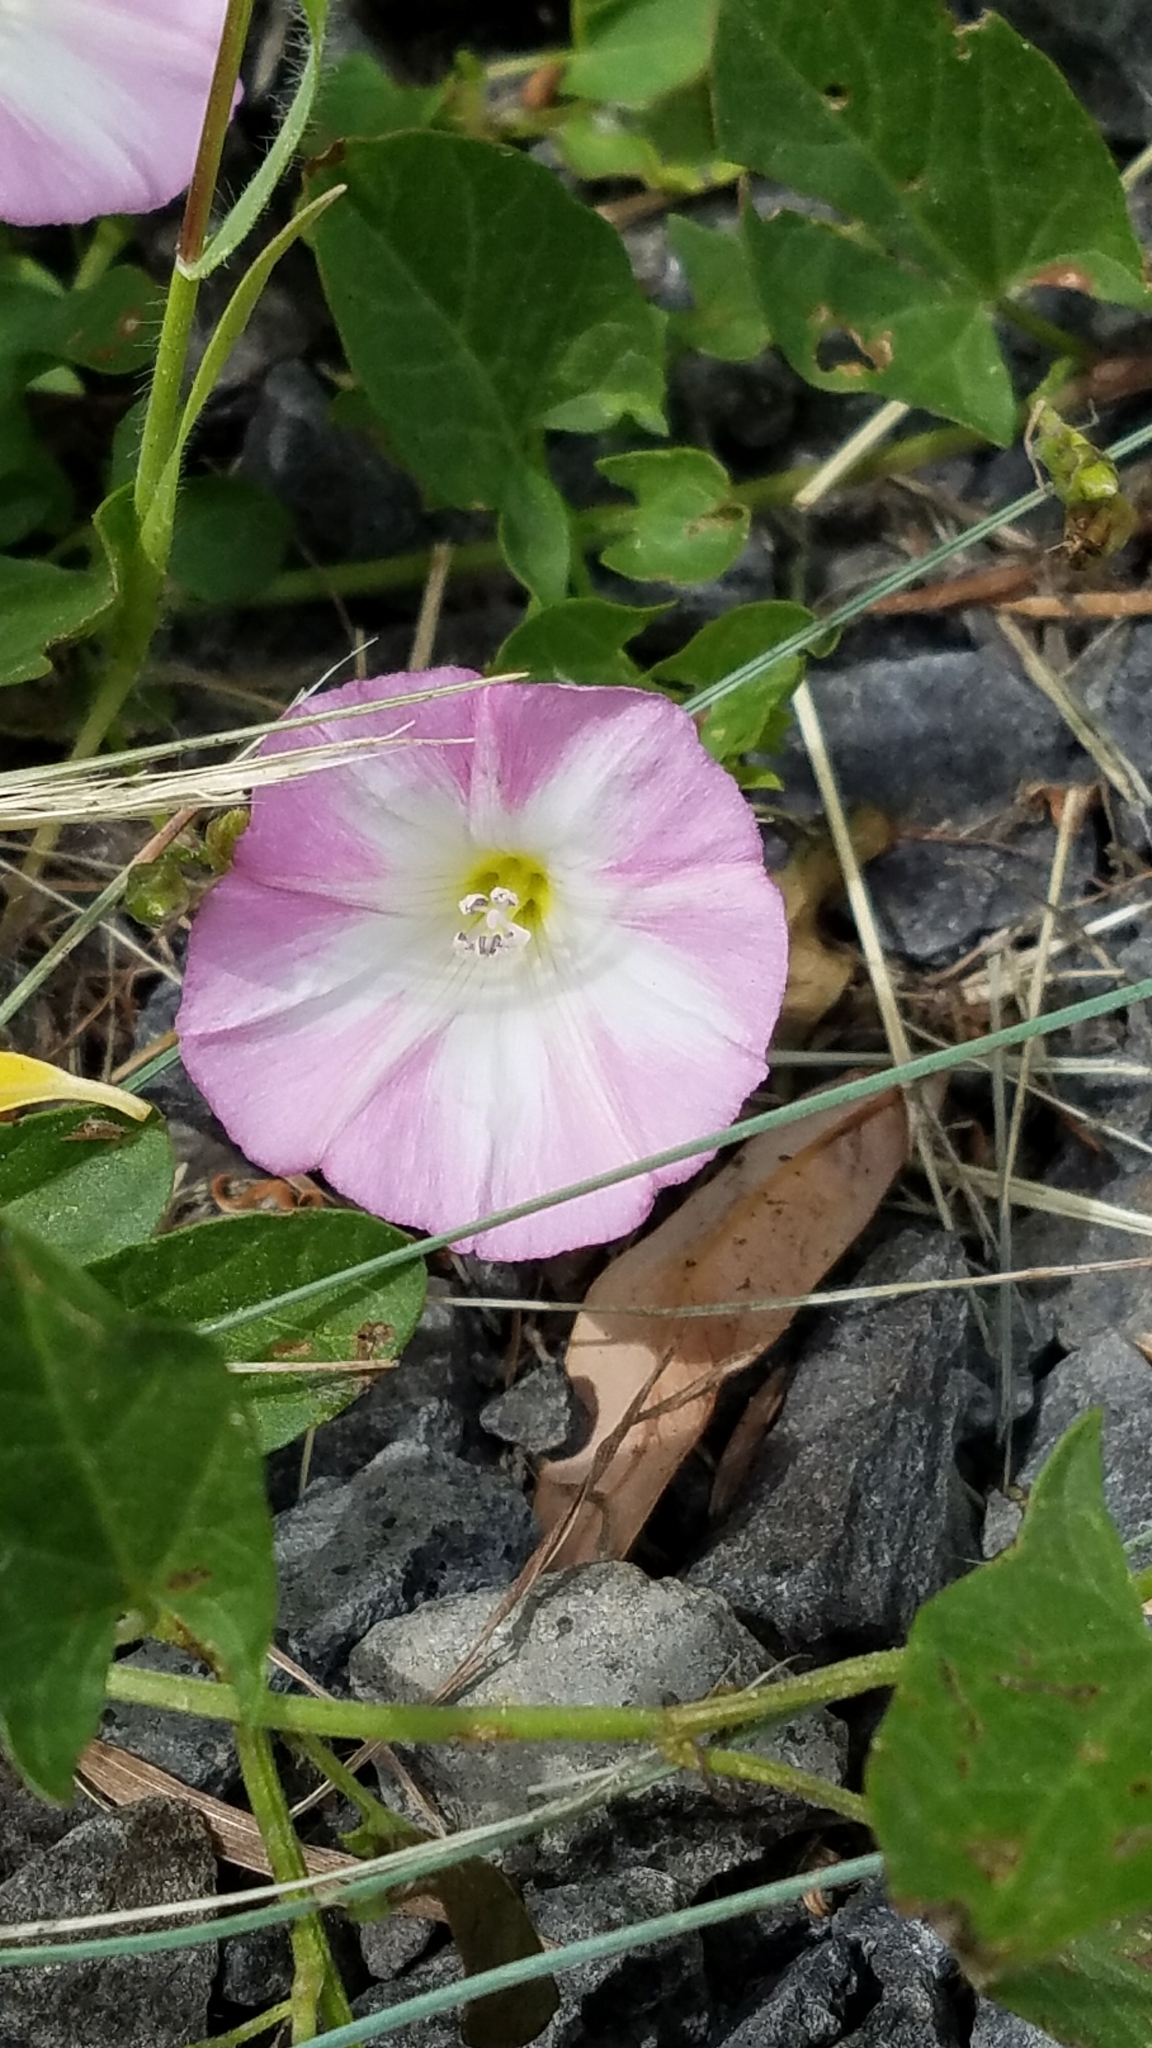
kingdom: Plantae
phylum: Tracheophyta
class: Magnoliopsida
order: Solanales
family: Convolvulaceae
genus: Convolvulus
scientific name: Convolvulus arvensis
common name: Field bindweed
